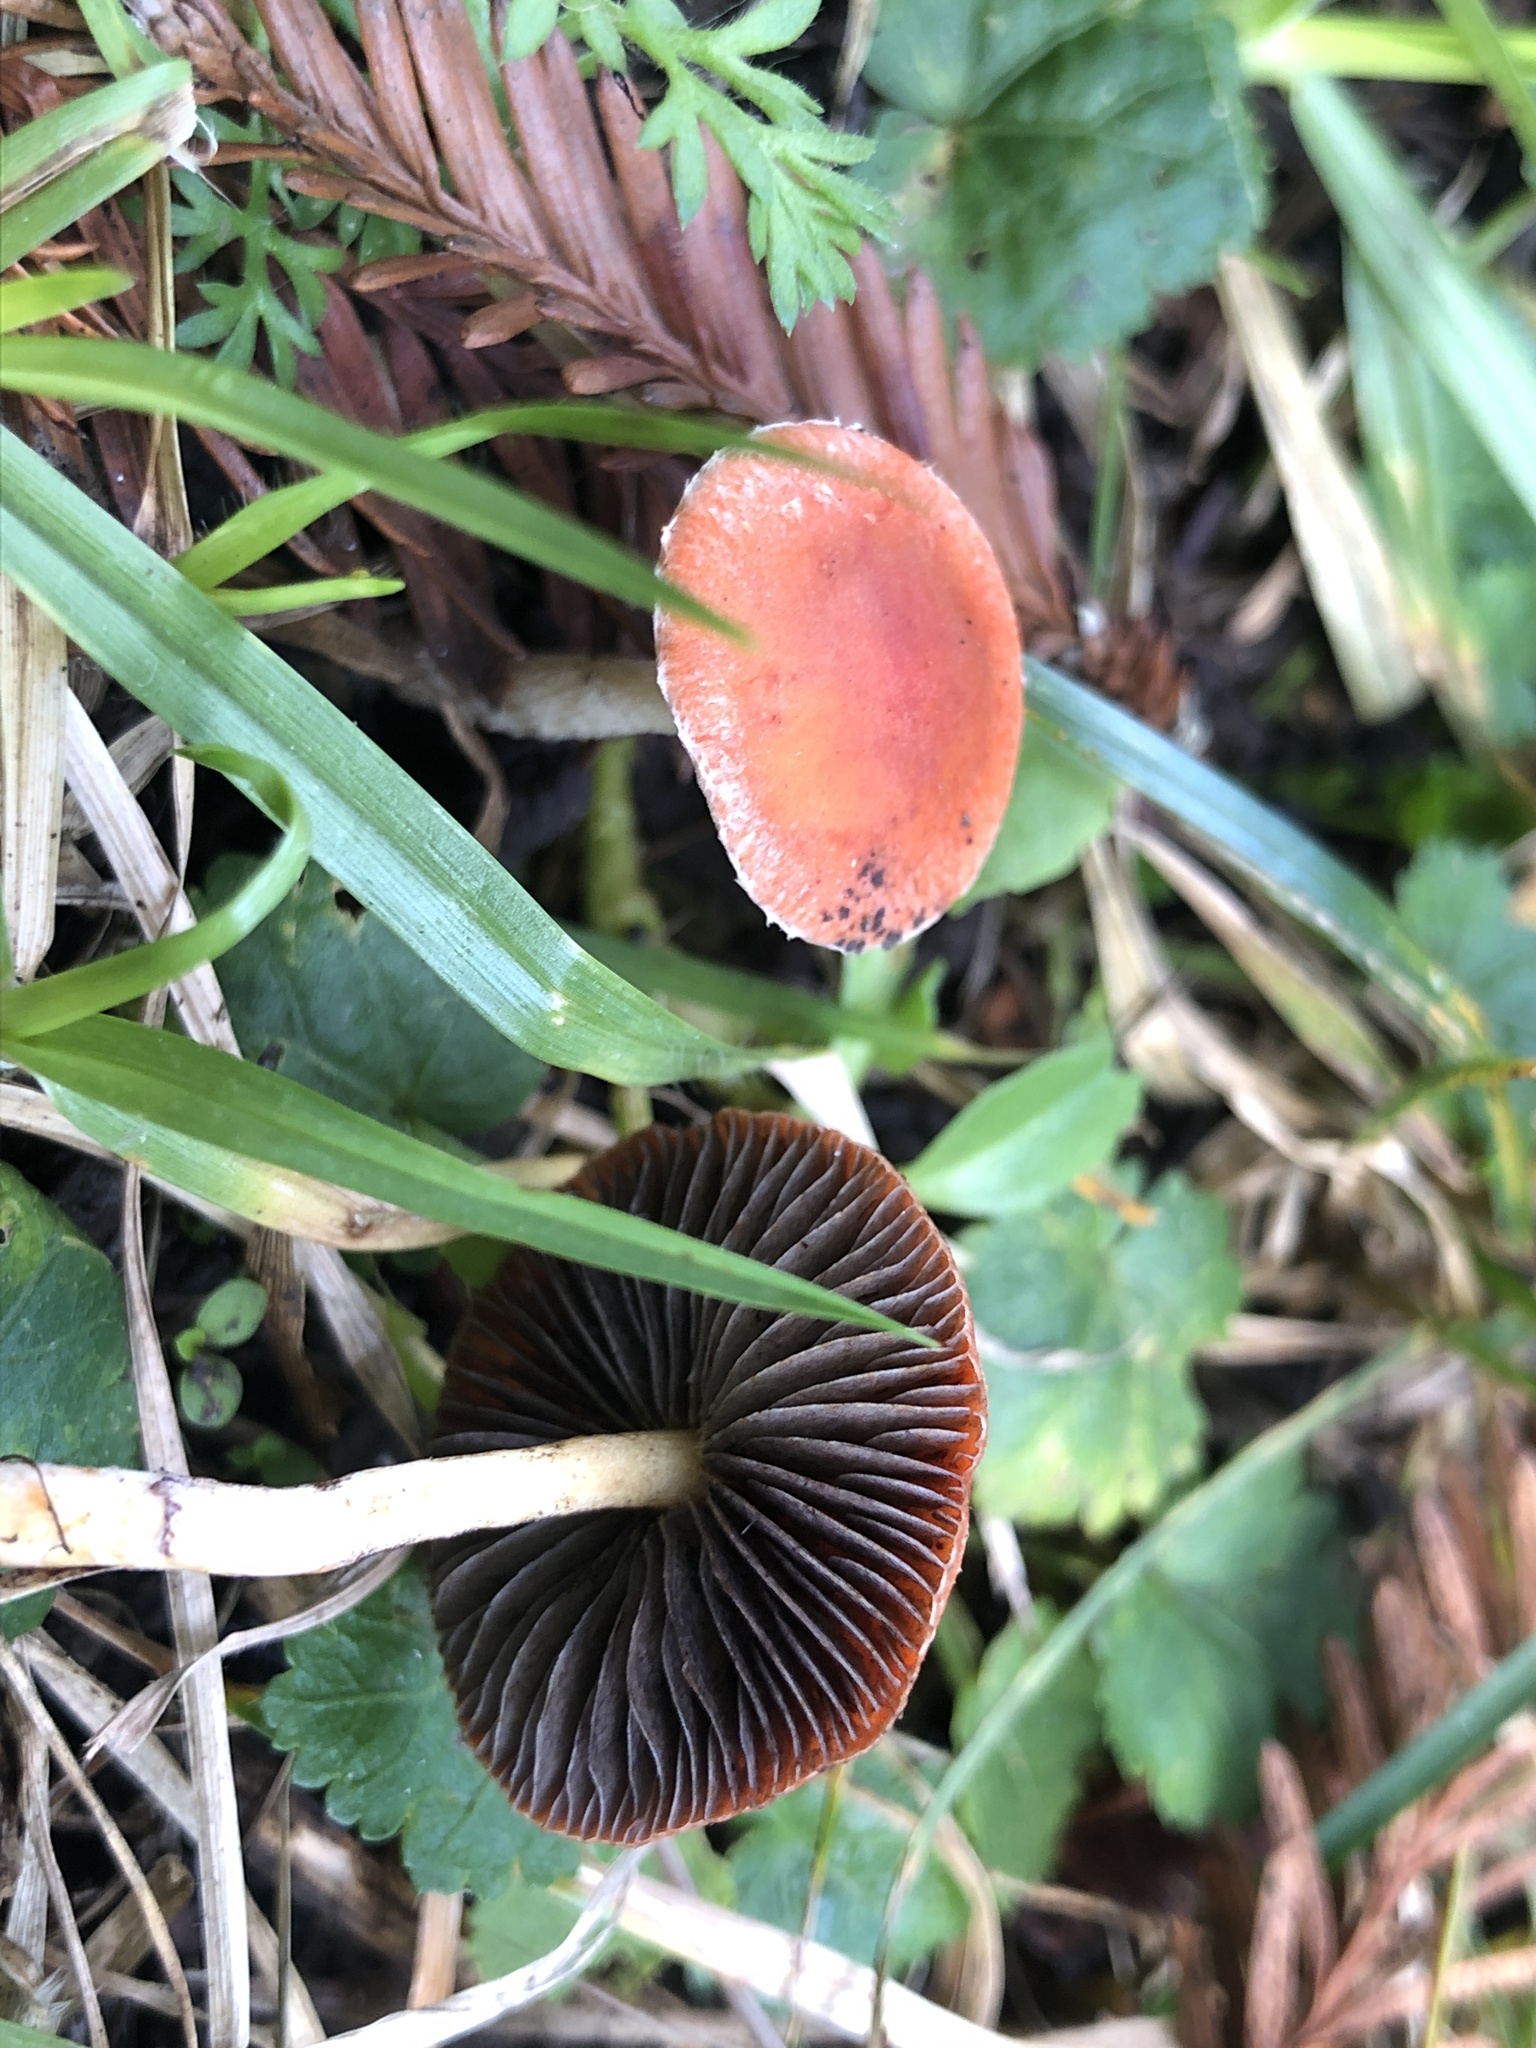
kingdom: Fungi
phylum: Basidiomycota
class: Agaricomycetes
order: Agaricales
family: Strophariaceae
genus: Leratiomyces
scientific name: Leratiomyces ceres
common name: Redlead roundhead
